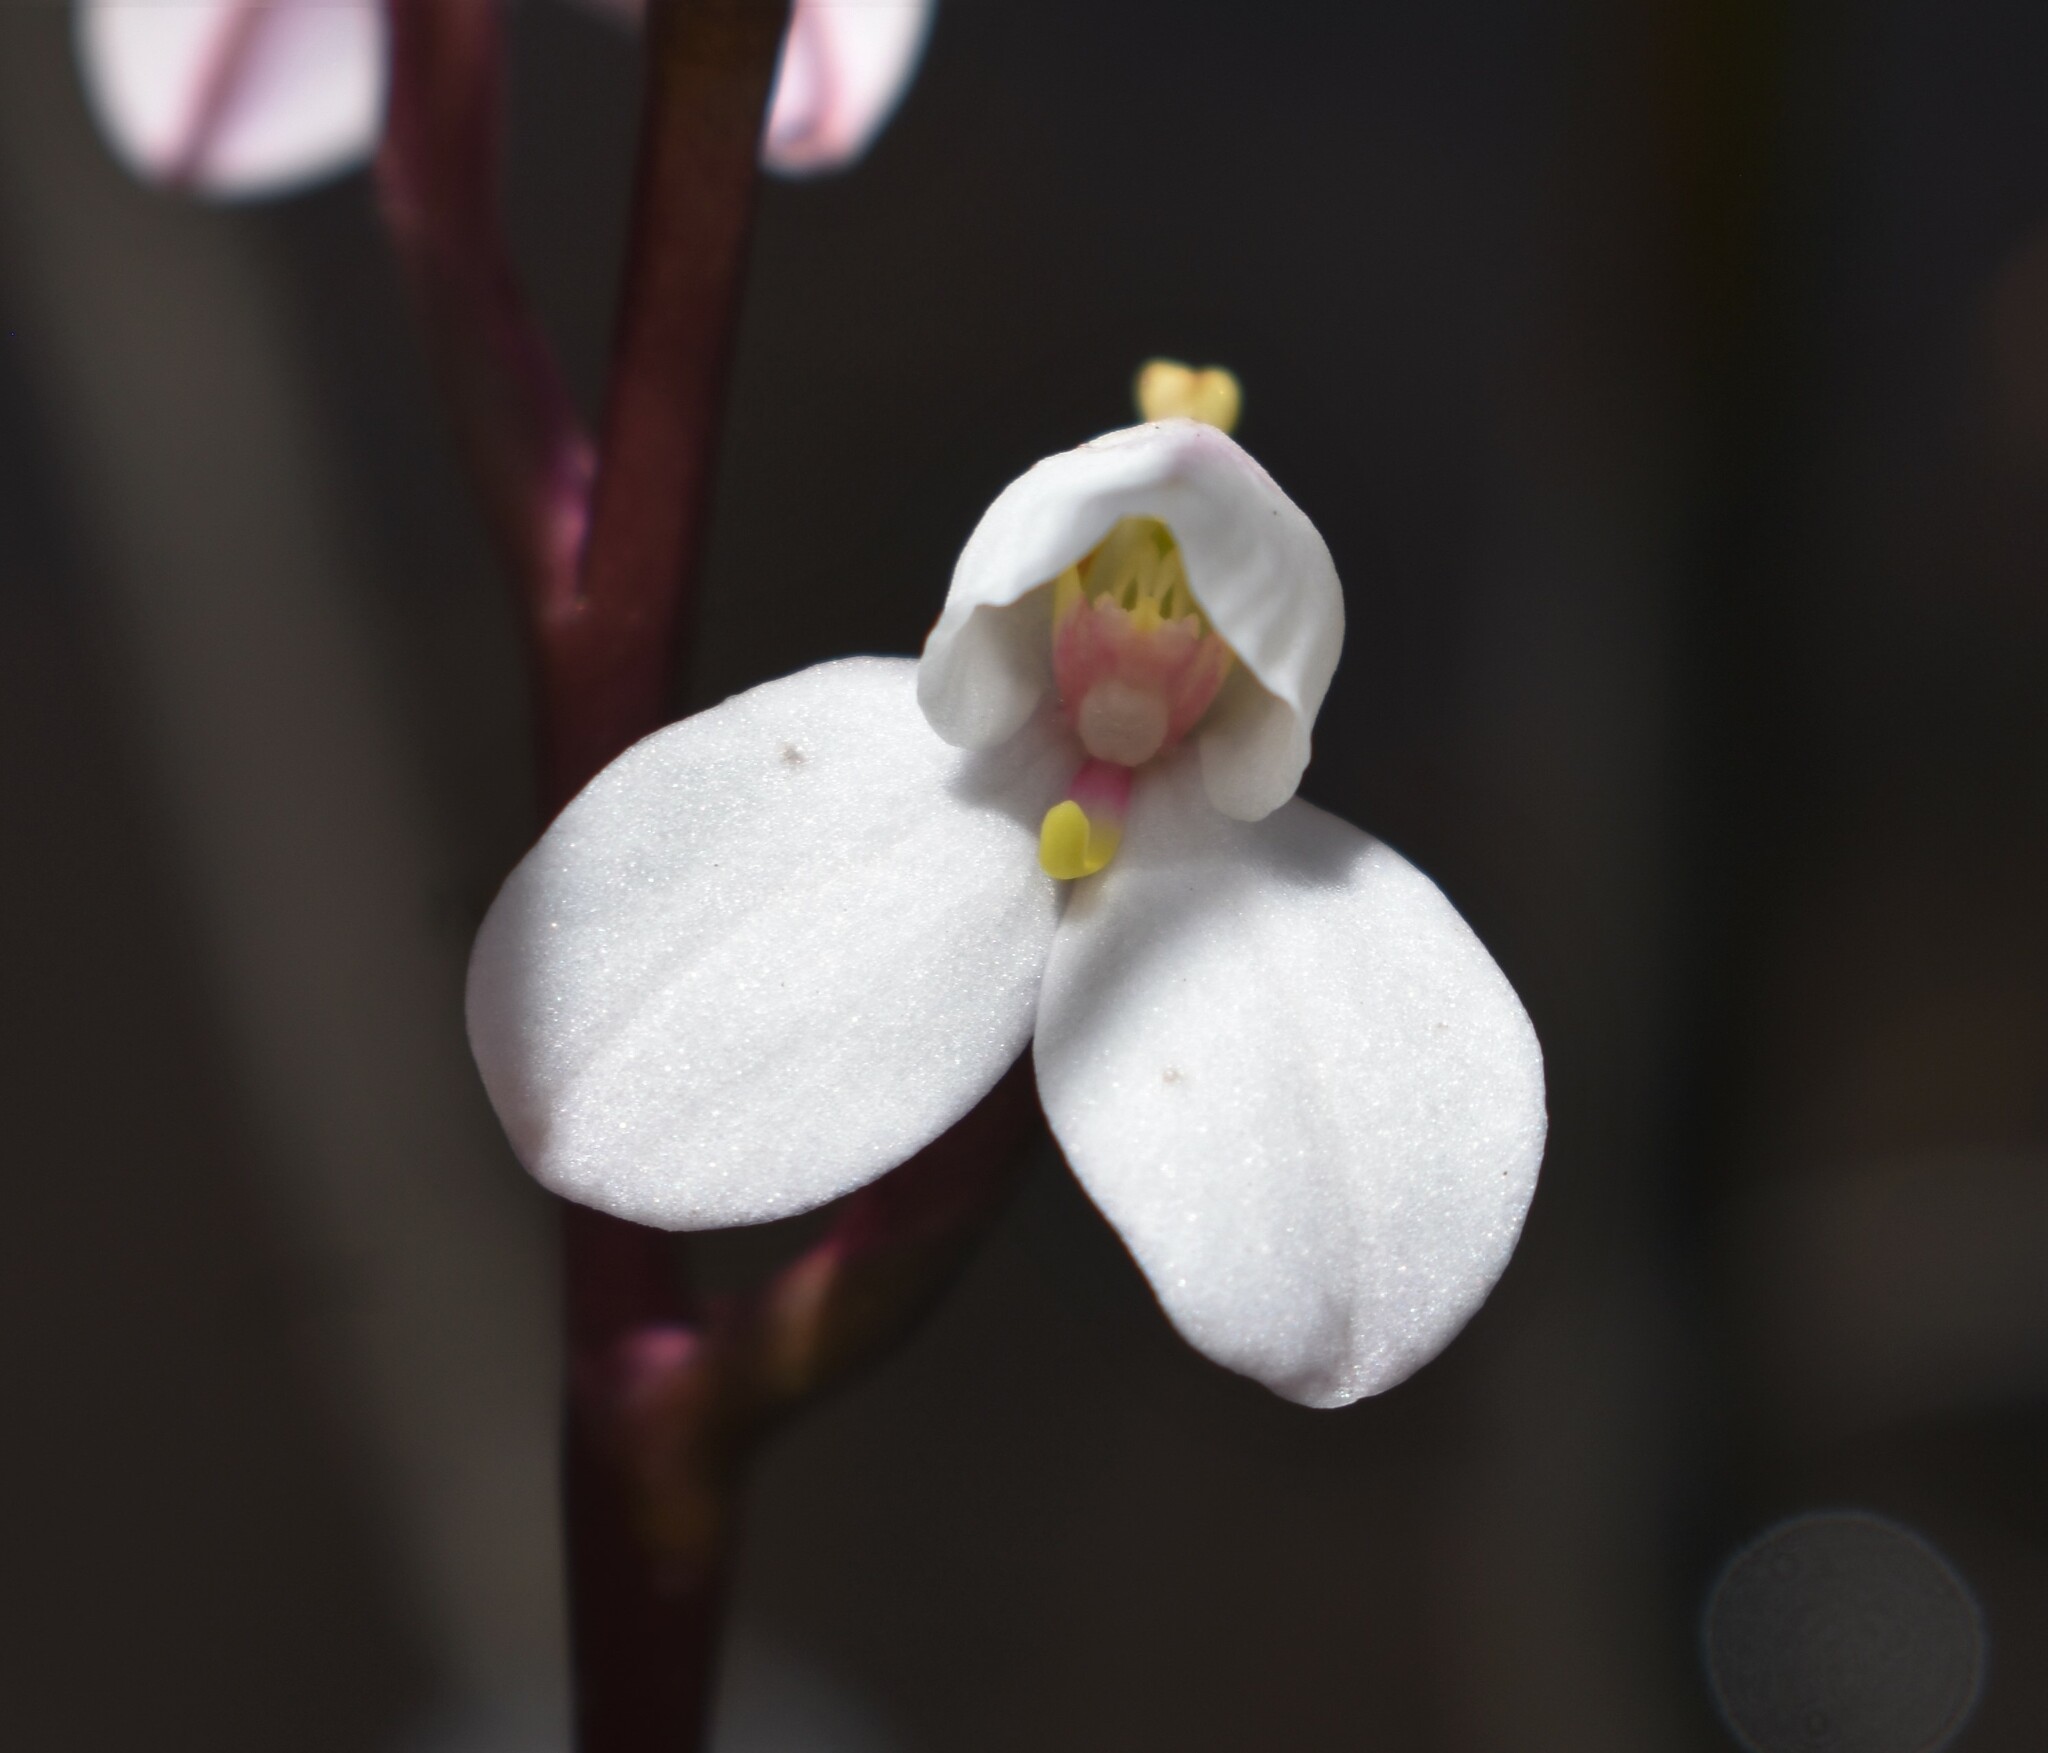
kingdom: Plantae
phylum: Tracheophyta
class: Liliopsida
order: Asparagales
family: Orchidaceae
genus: Disa
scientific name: Disa tripetaloides
